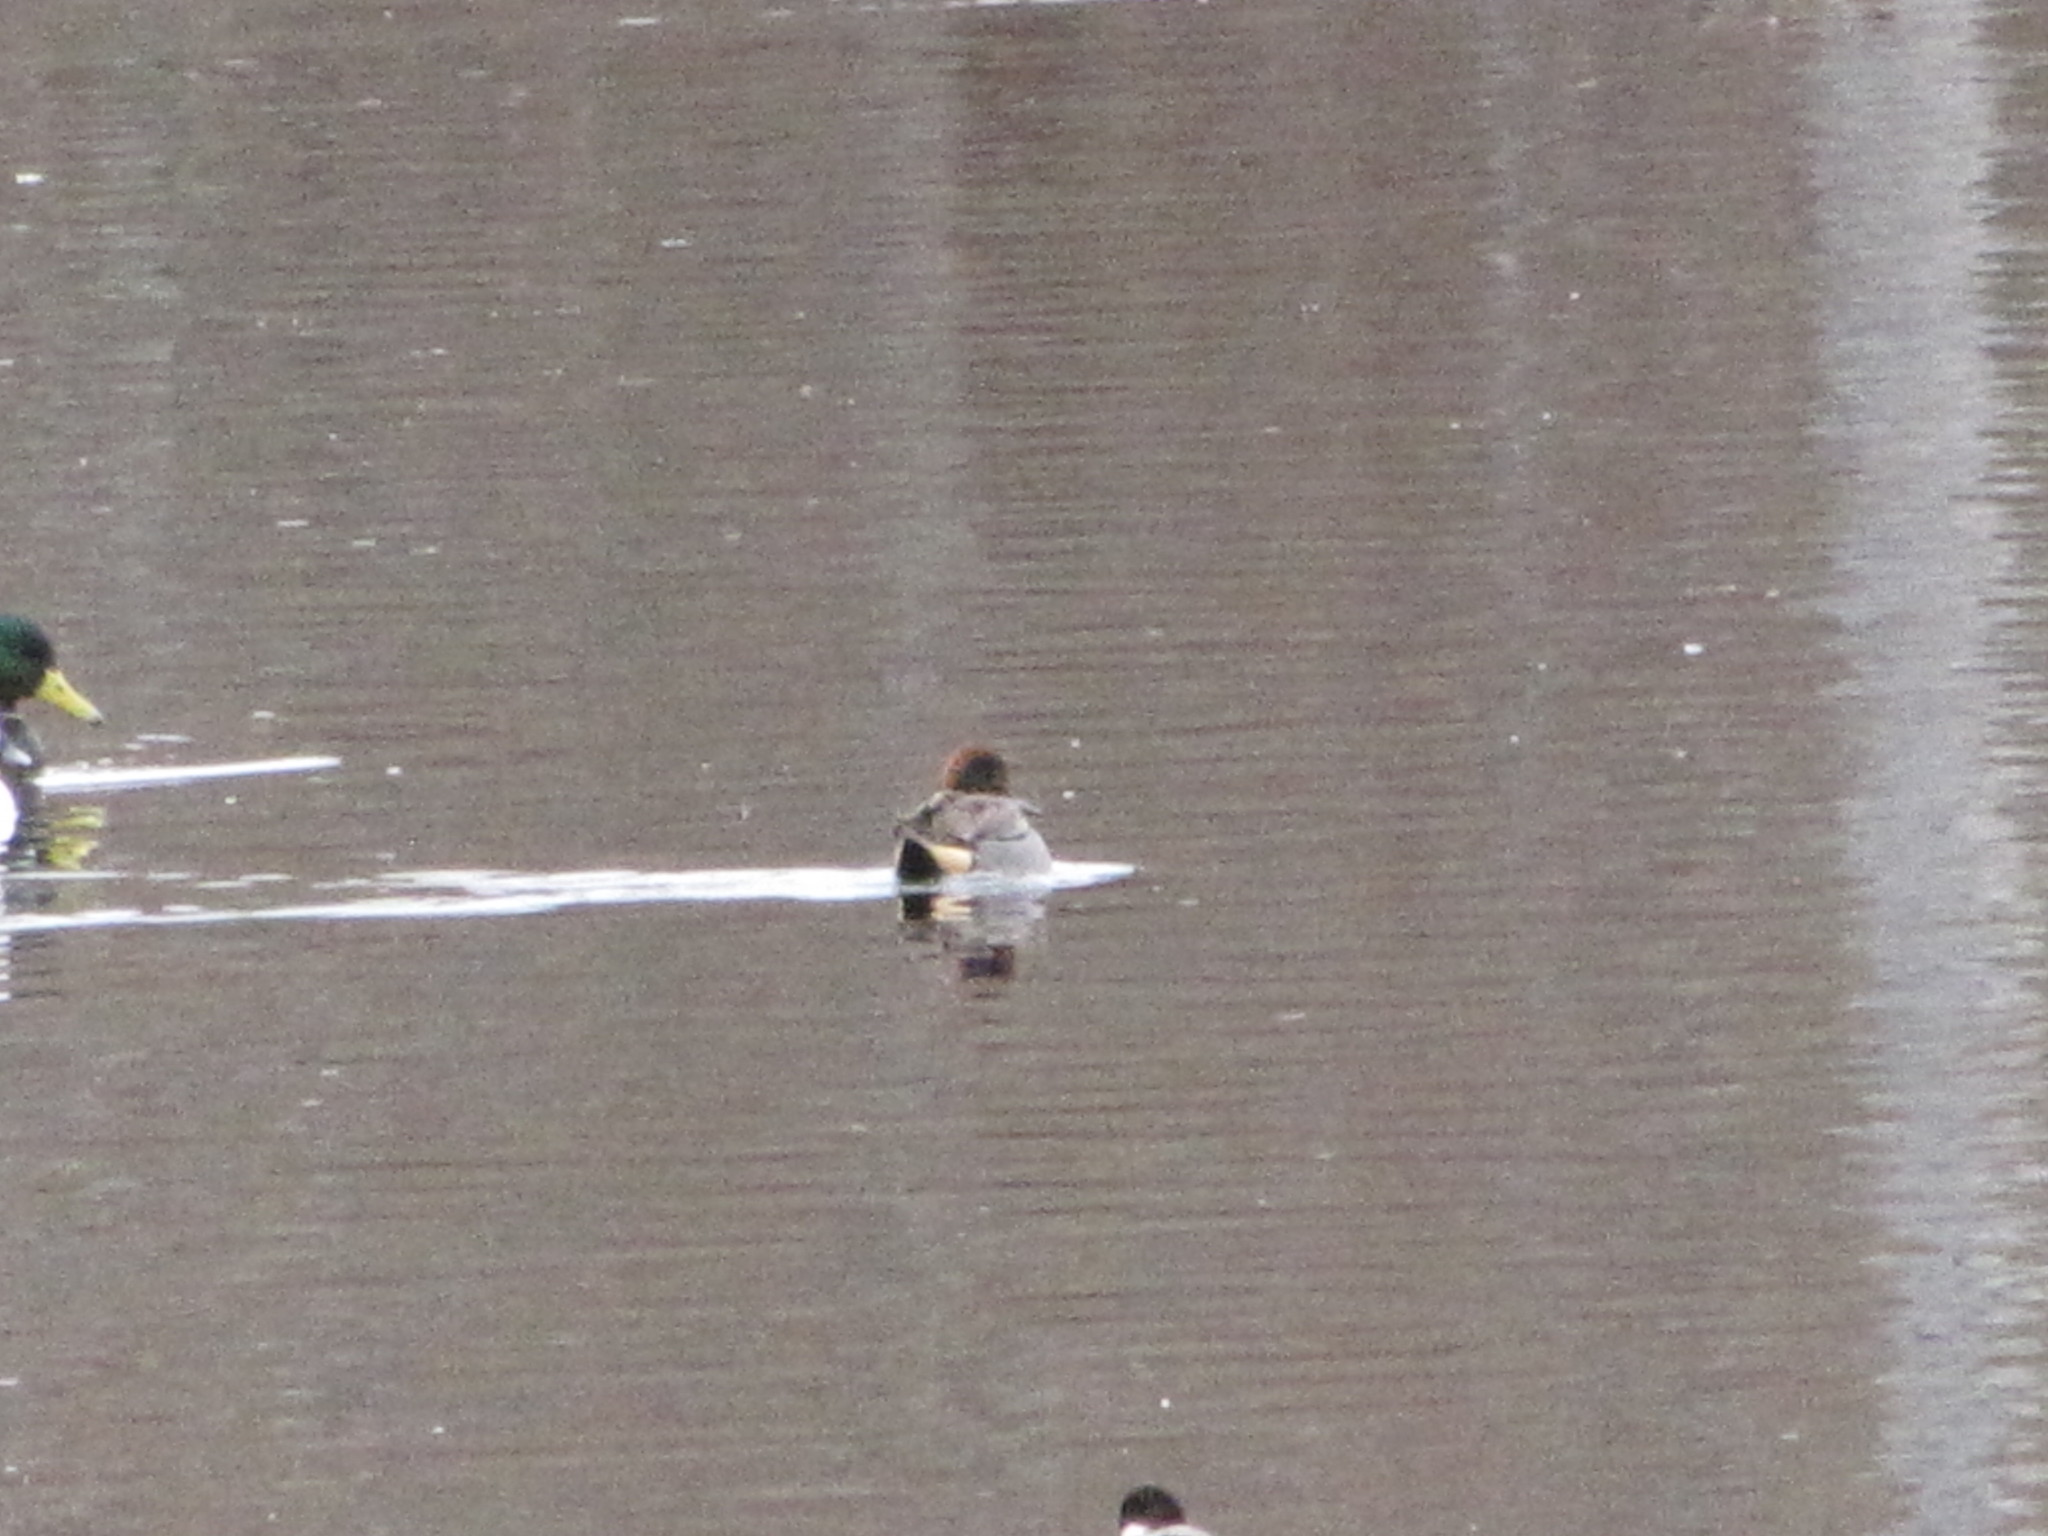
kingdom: Animalia
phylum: Chordata
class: Aves
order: Anseriformes
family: Anatidae
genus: Anas
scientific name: Anas carolinensis
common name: Green-winged teal
